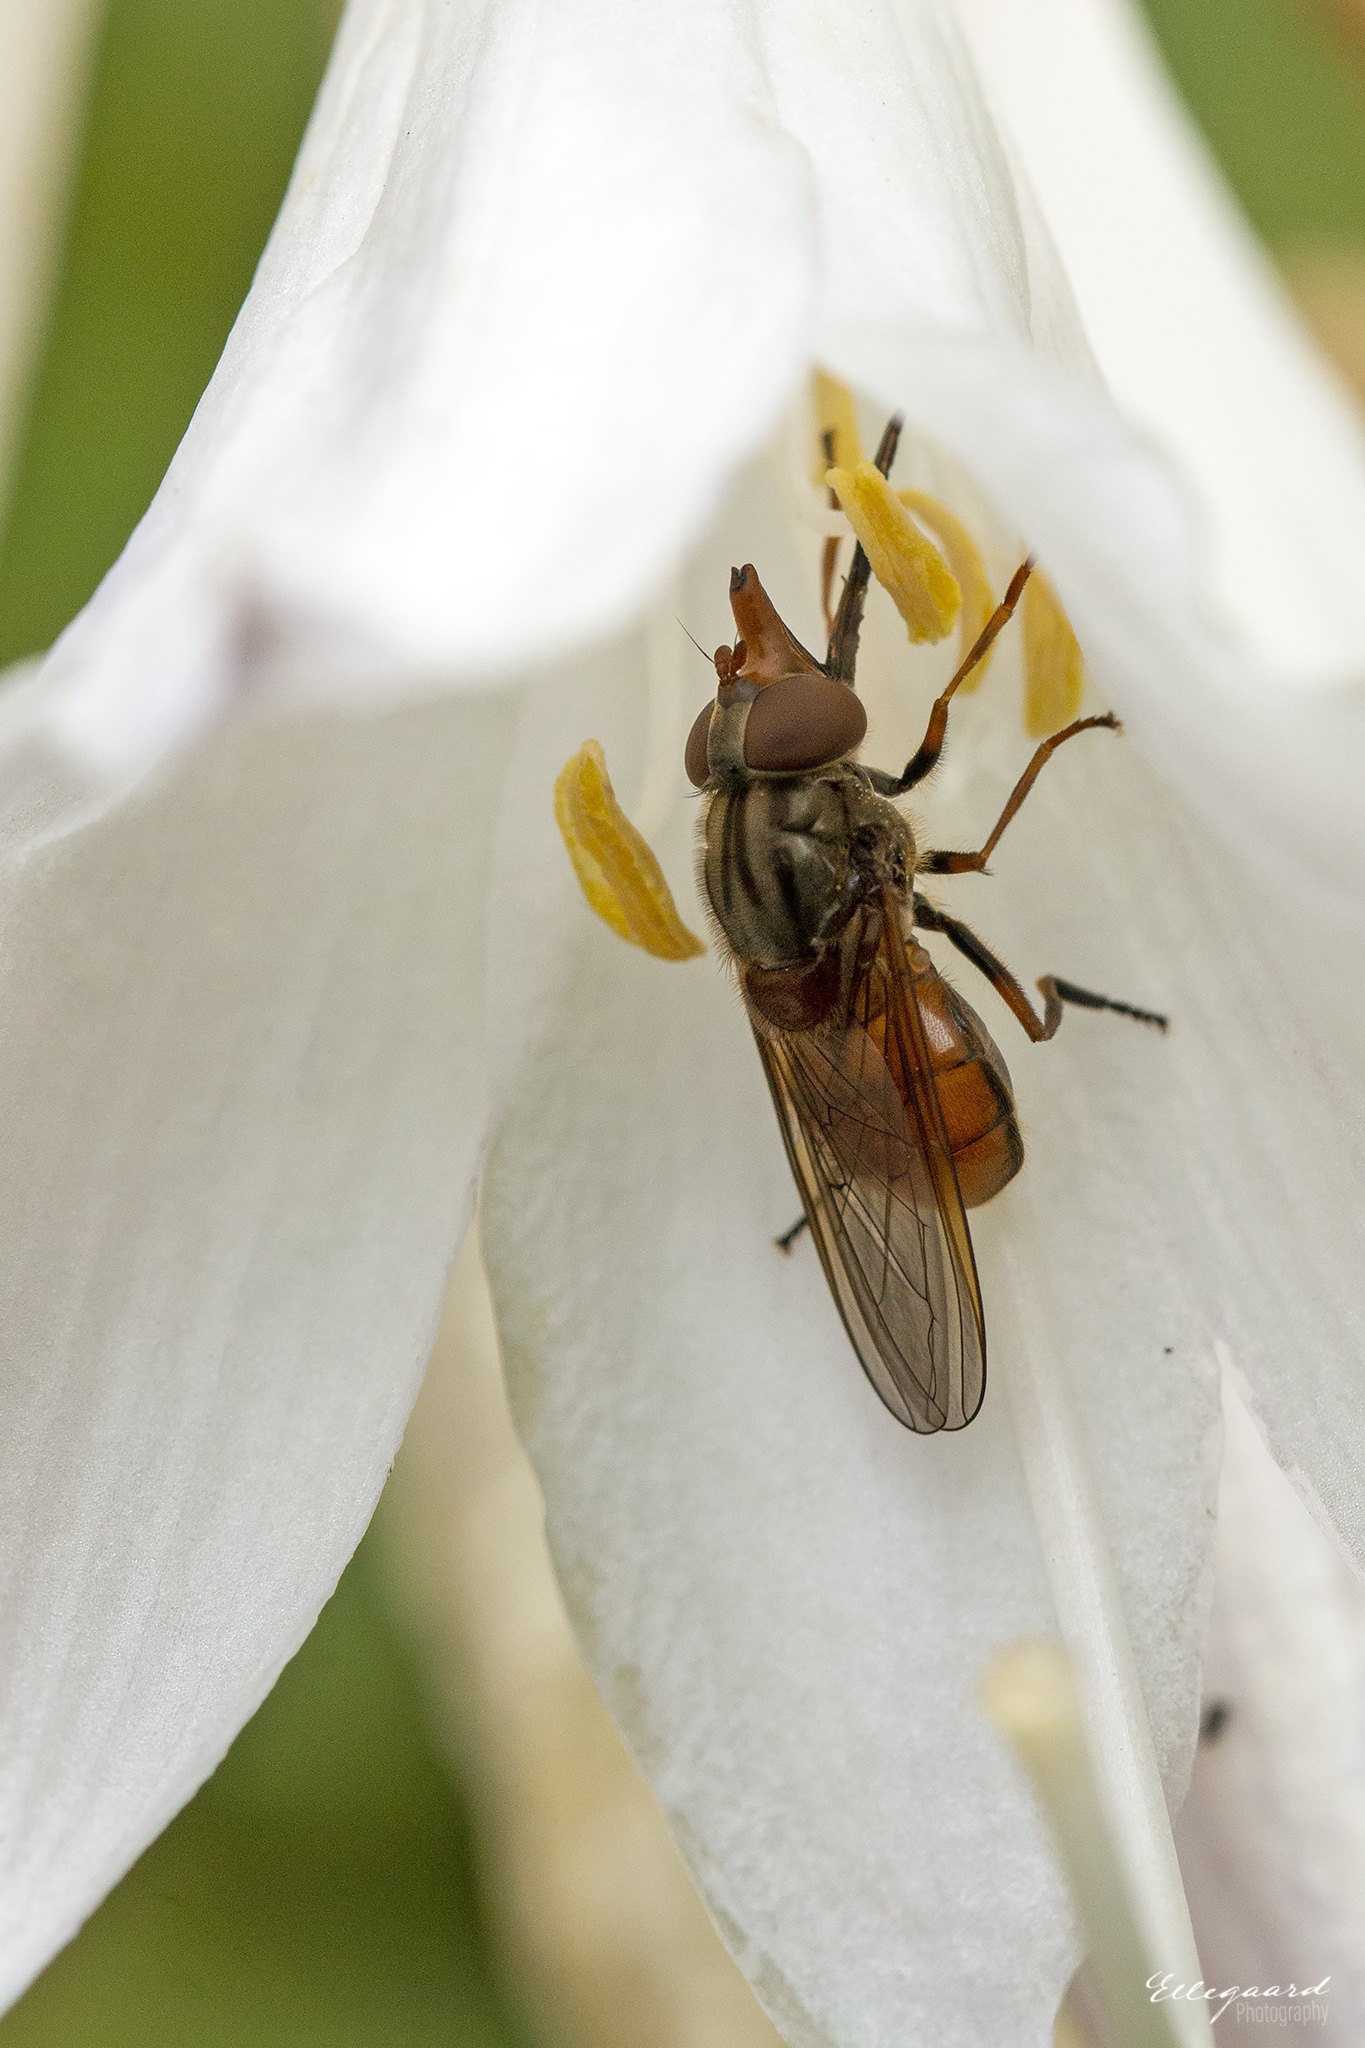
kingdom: Animalia
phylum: Arthropoda
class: Insecta
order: Diptera
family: Syrphidae
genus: Rhingia
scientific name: Rhingia campestris
